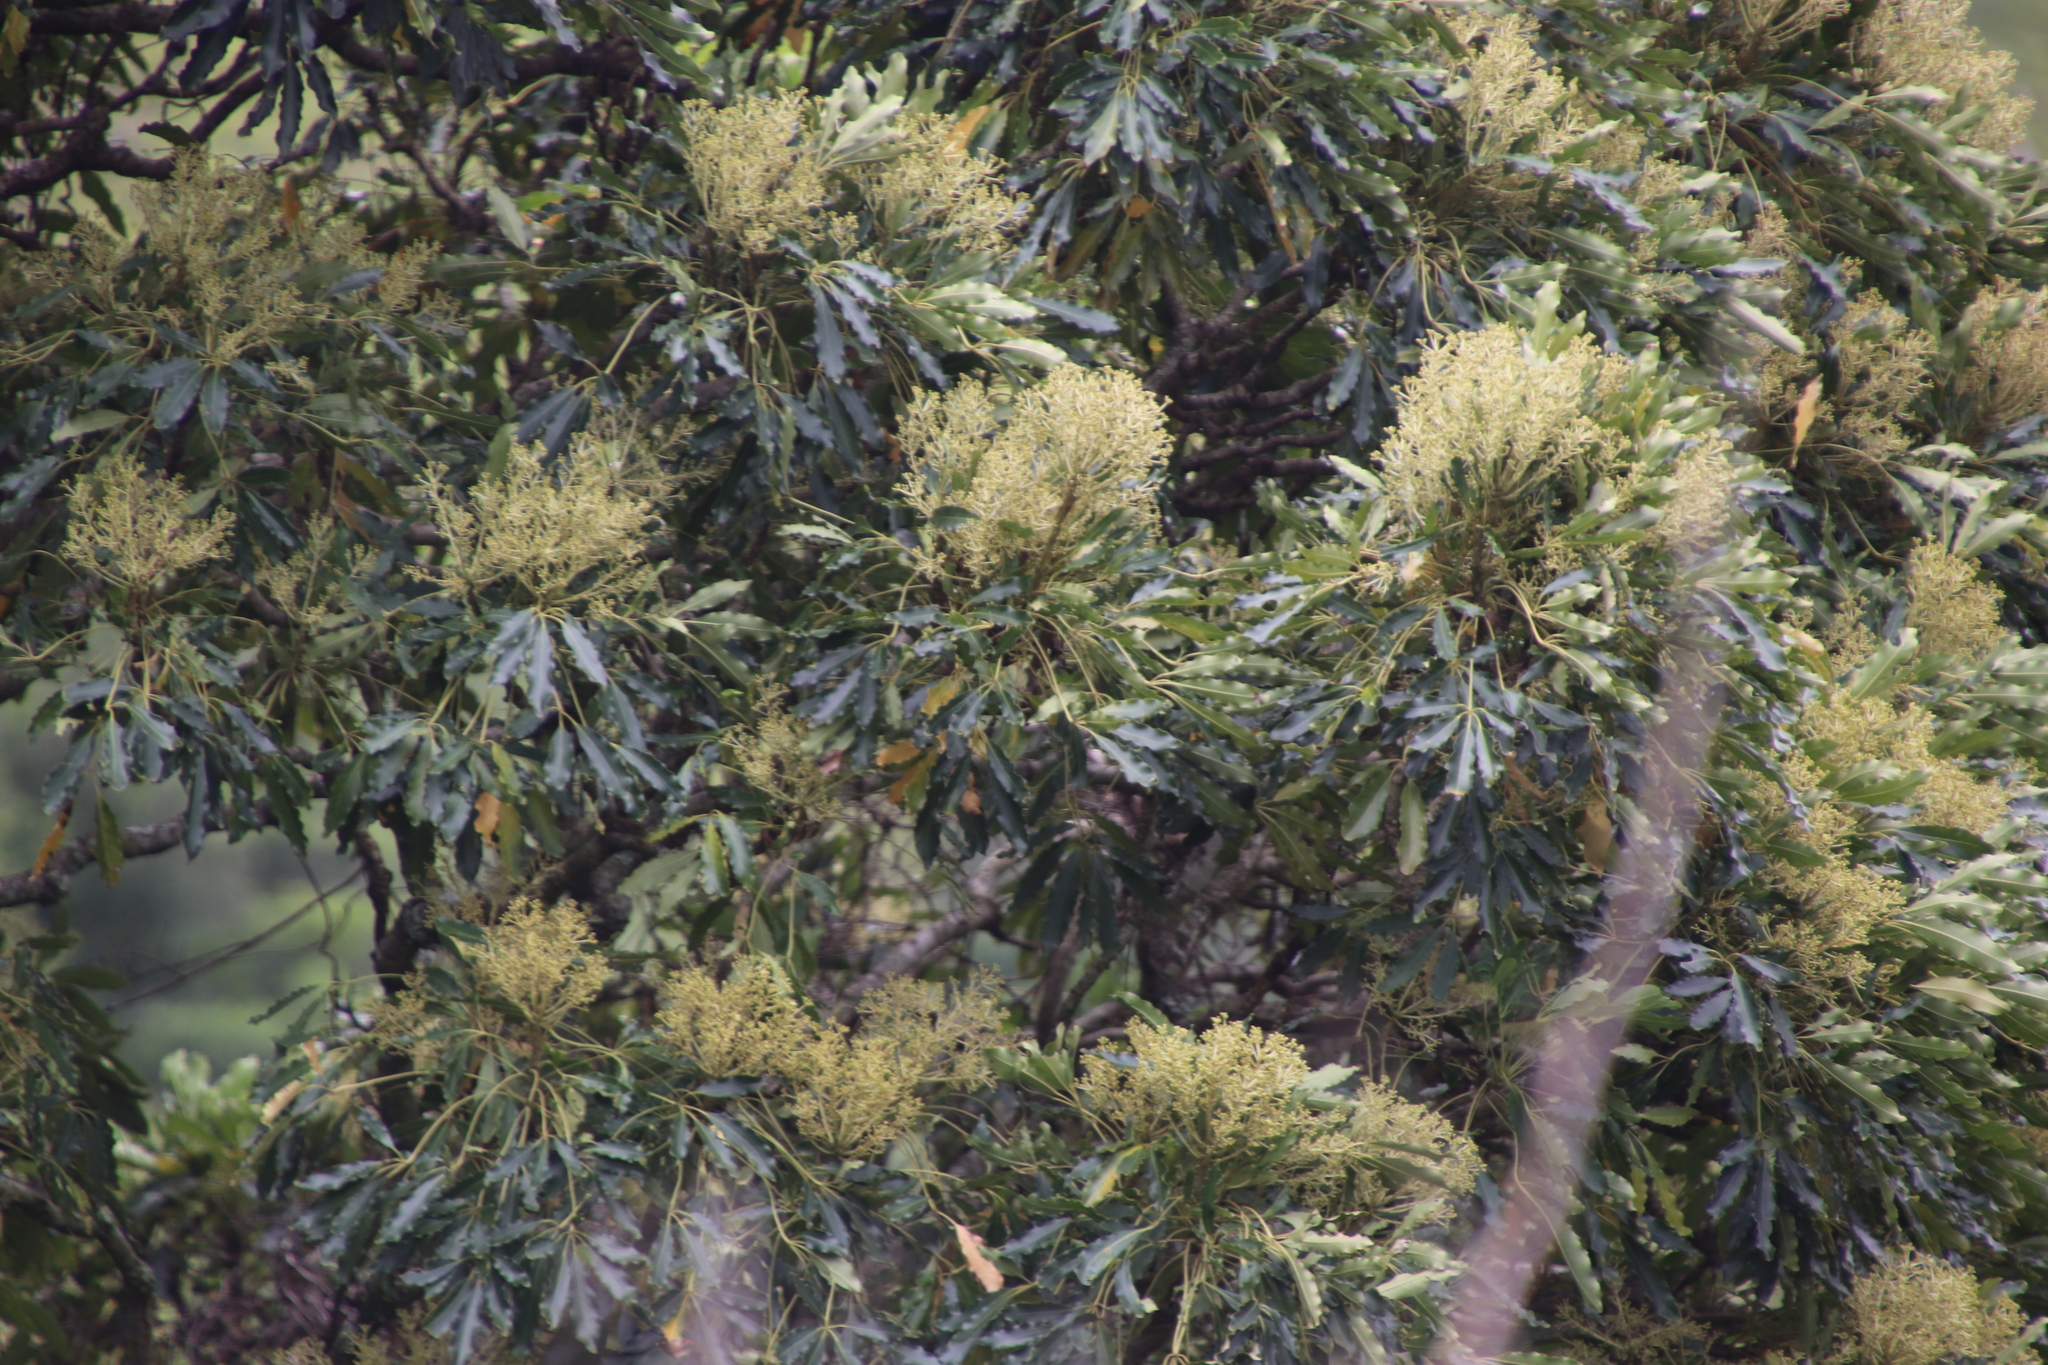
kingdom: Plantae
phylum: Tracheophyta
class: Magnoliopsida
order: Apiales
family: Araliaceae
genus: Neocussonia
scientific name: Neocussonia umbellifera
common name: False cabbage tree
